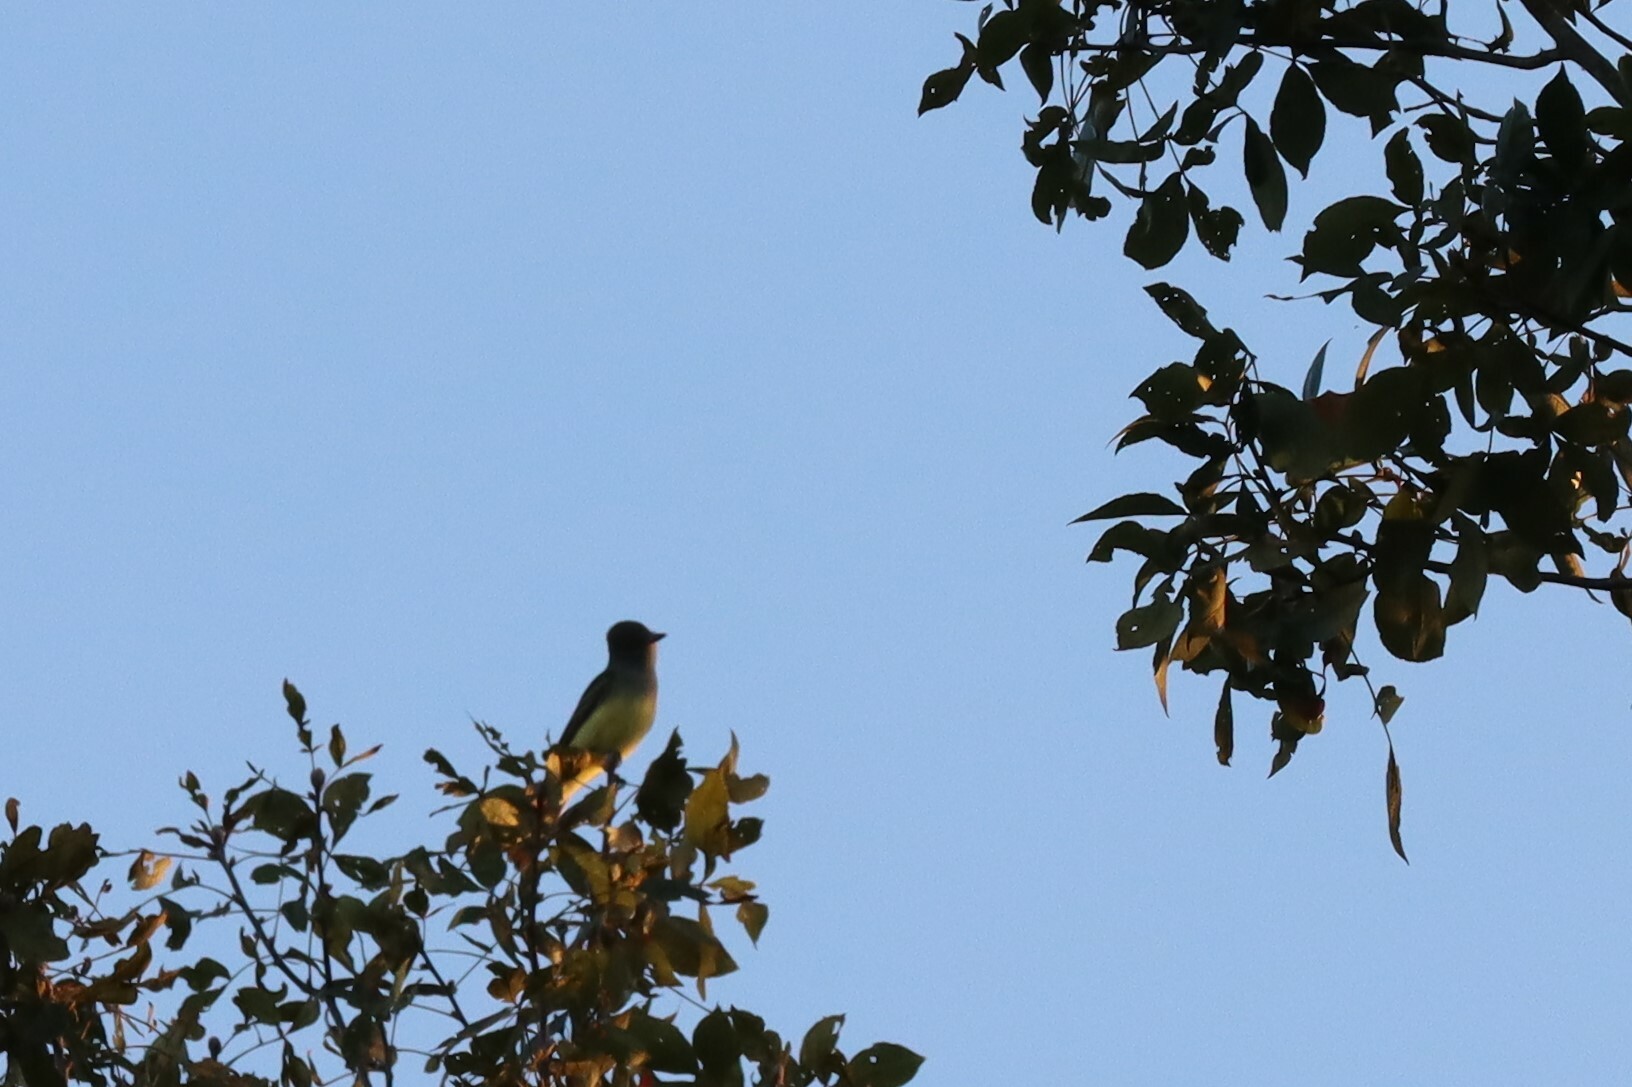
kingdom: Animalia
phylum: Chordata
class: Aves
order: Passeriformes
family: Tyrannidae
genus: Myiarchus
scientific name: Myiarchus crinitus
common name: Great crested flycatcher
